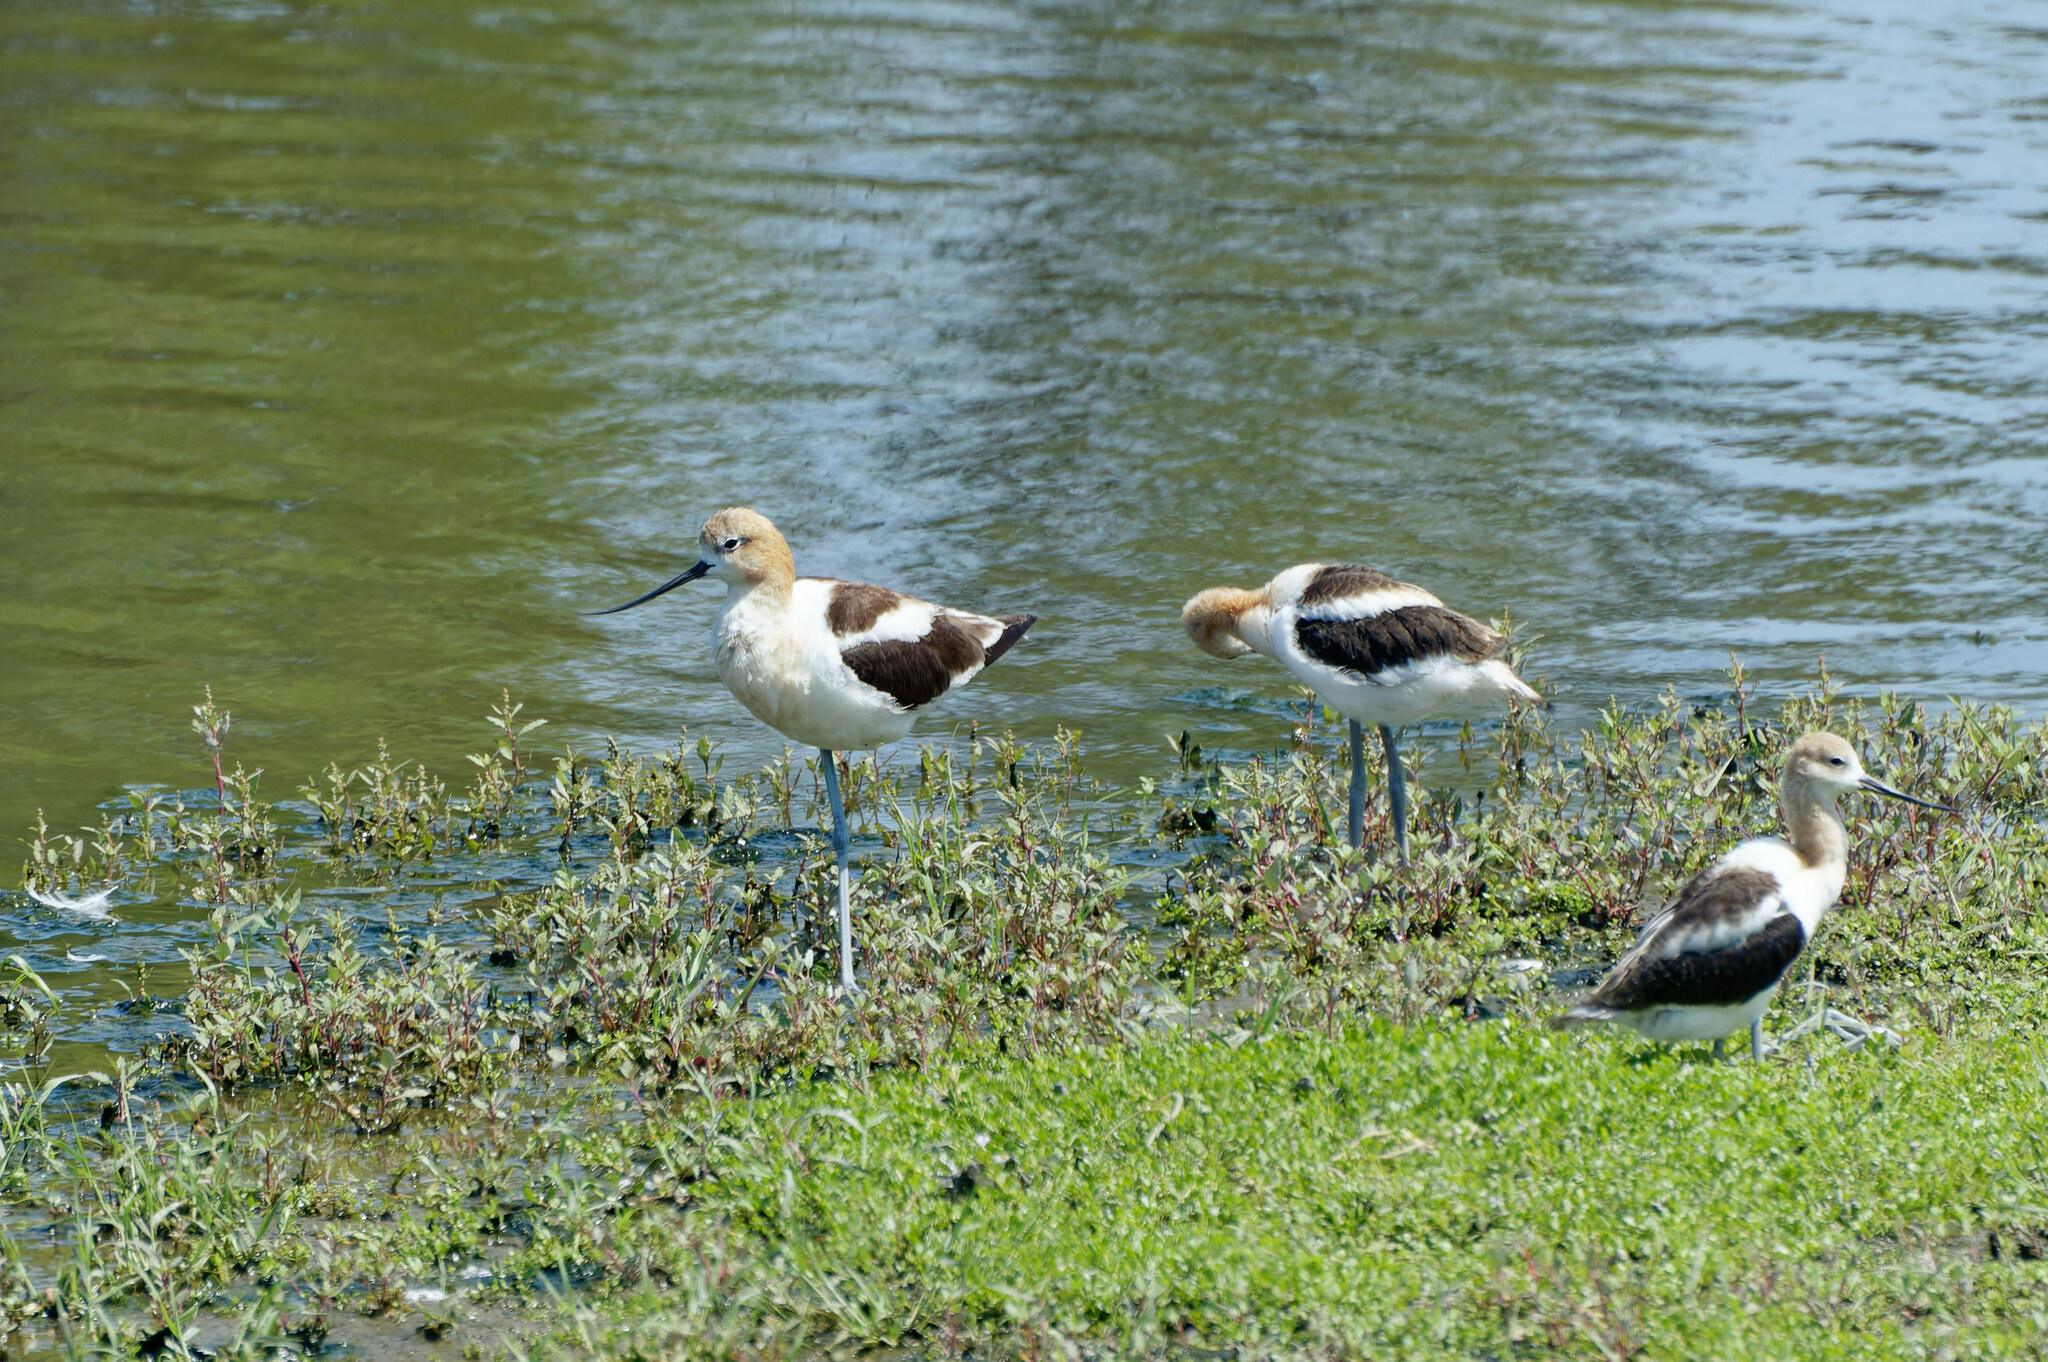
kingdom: Animalia
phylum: Chordata
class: Aves
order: Charadriiformes
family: Recurvirostridae
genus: Recurvirostra
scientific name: Recurvirostra americana
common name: American avocet
